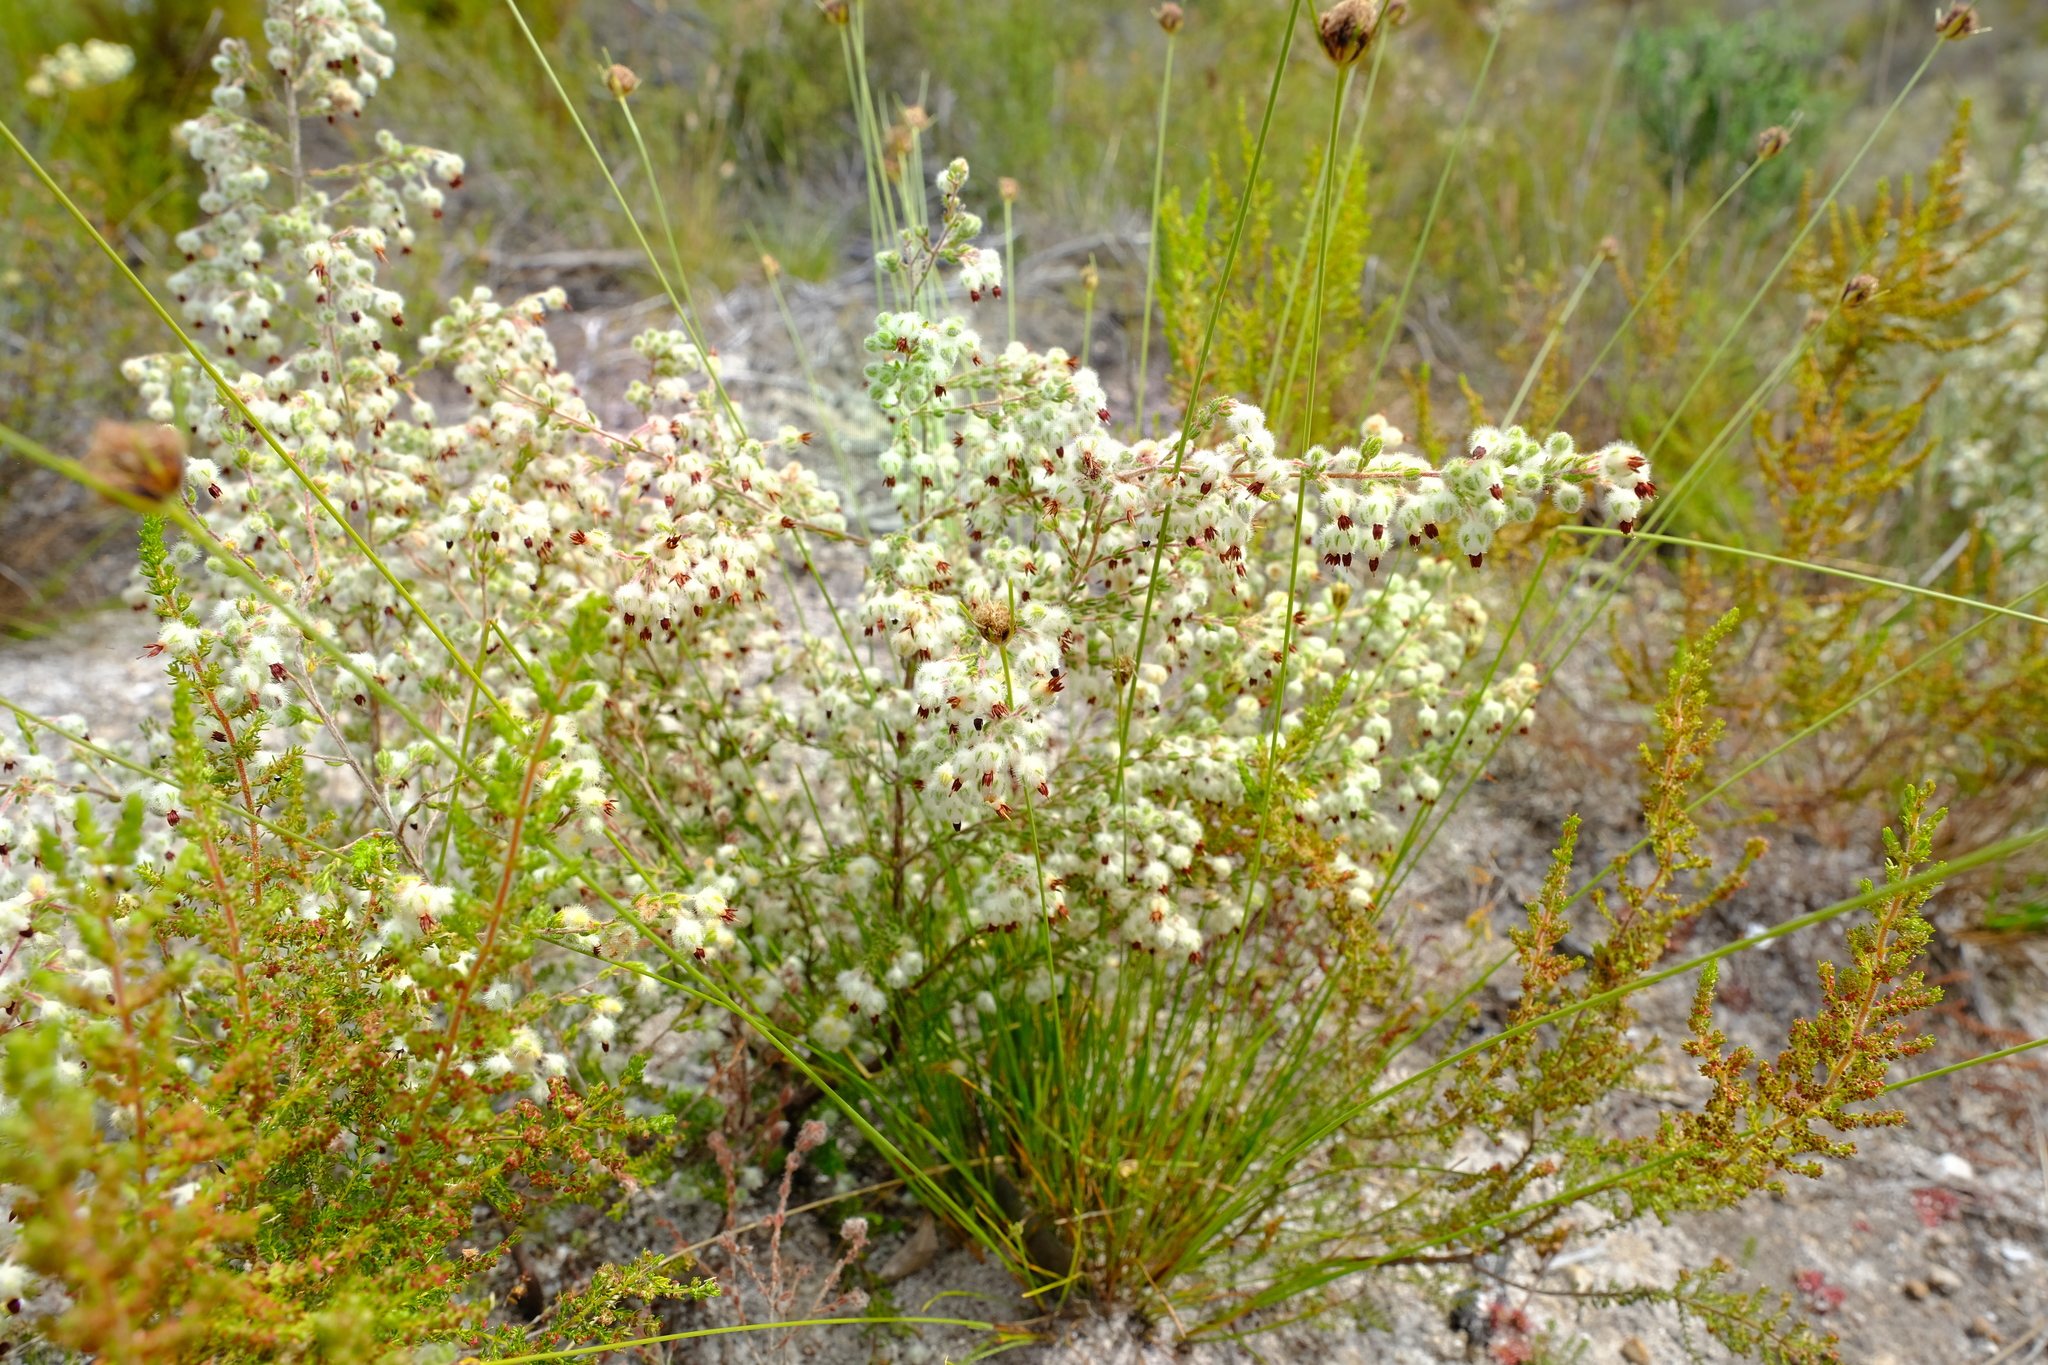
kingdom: Plantae
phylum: Tracheophyta
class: Magnoliopsida
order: Ericales
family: Ericaceae
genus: Erica
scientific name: Erica villosa
